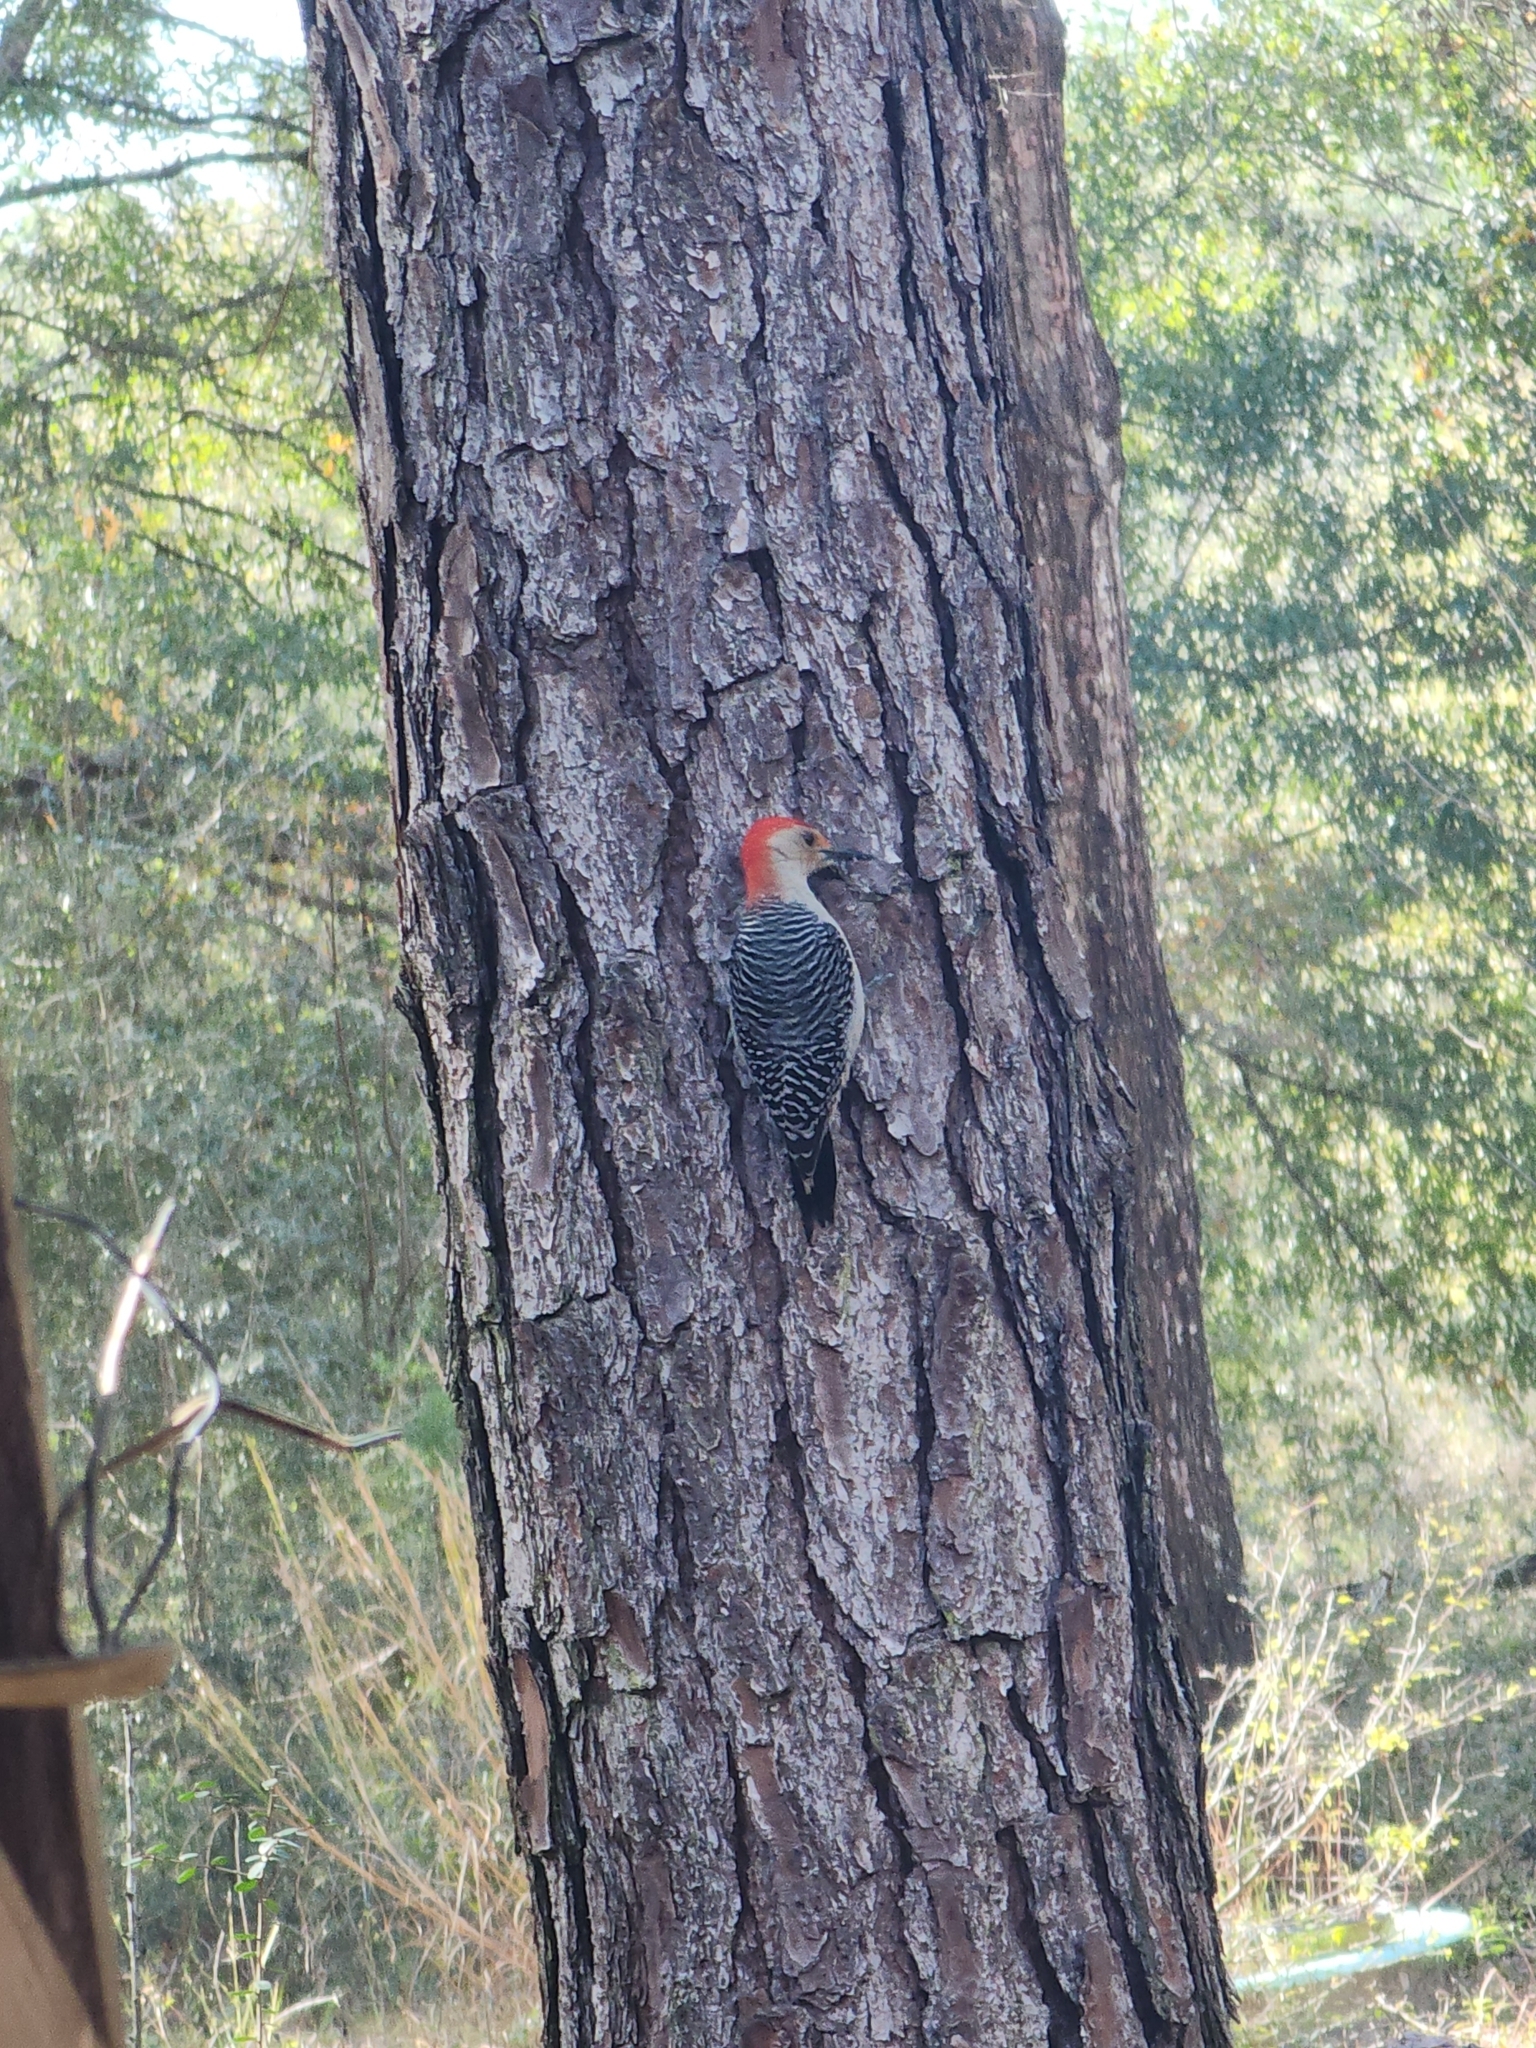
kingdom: Animalia
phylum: Chordata
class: Aves
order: Piciformes
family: Picidae
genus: Melanerpes
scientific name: Melanerpes carolinus
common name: Red-bellied woodpecker
